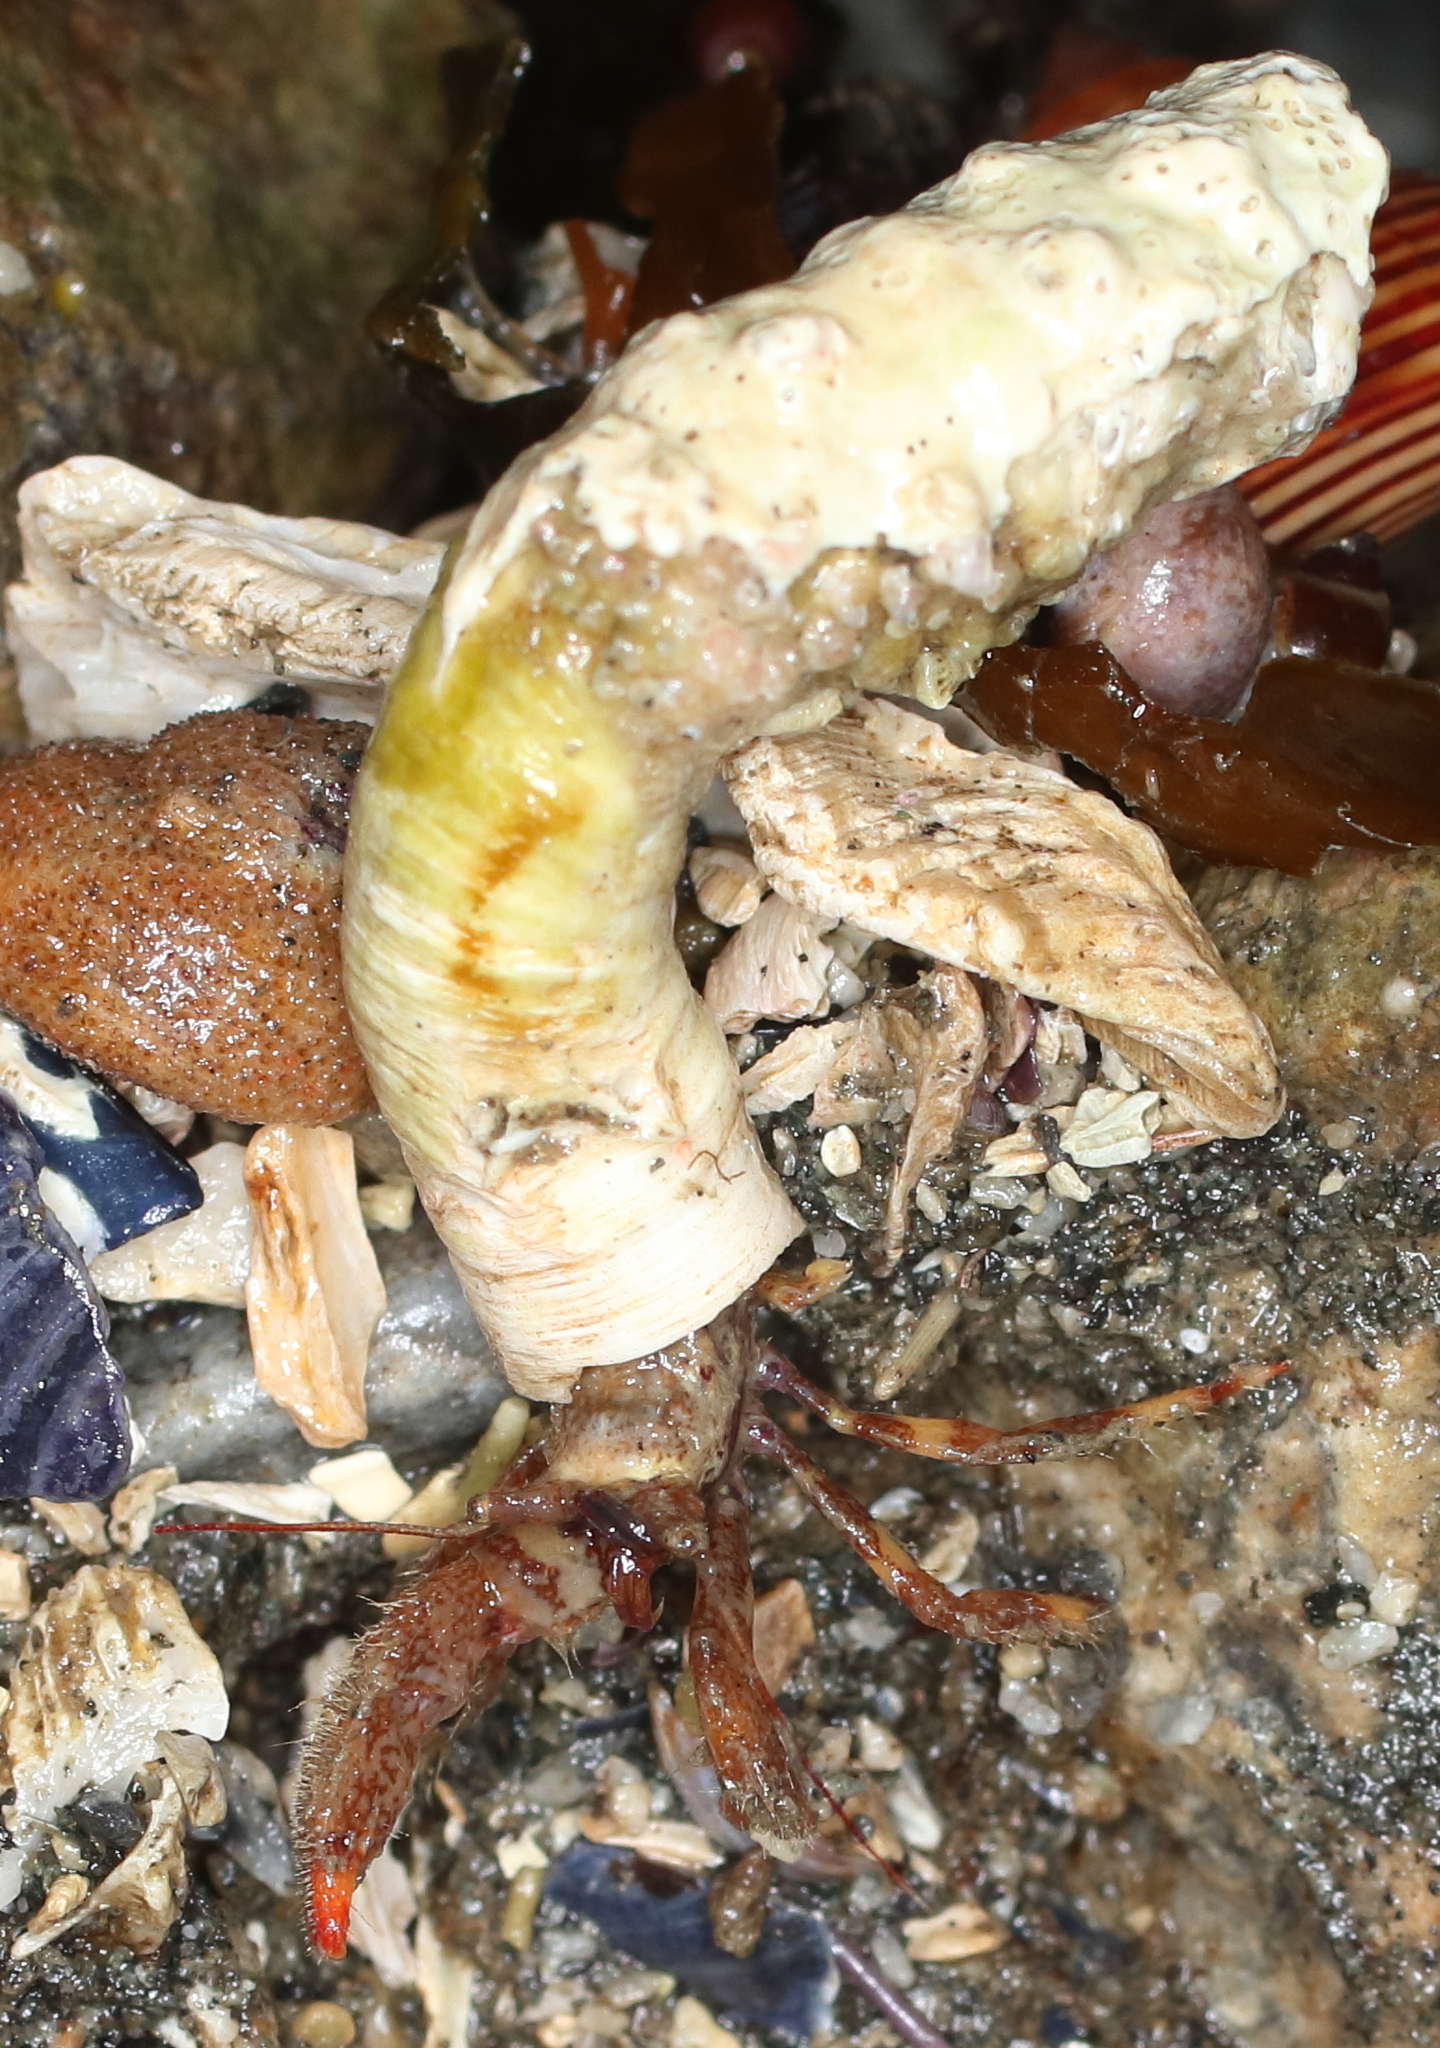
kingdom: Animalia
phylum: Arthropoda
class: Malacostraca
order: Decapoda
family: Paguridae
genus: Discorsopagurus
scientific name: Discorsopagurus schmitti
